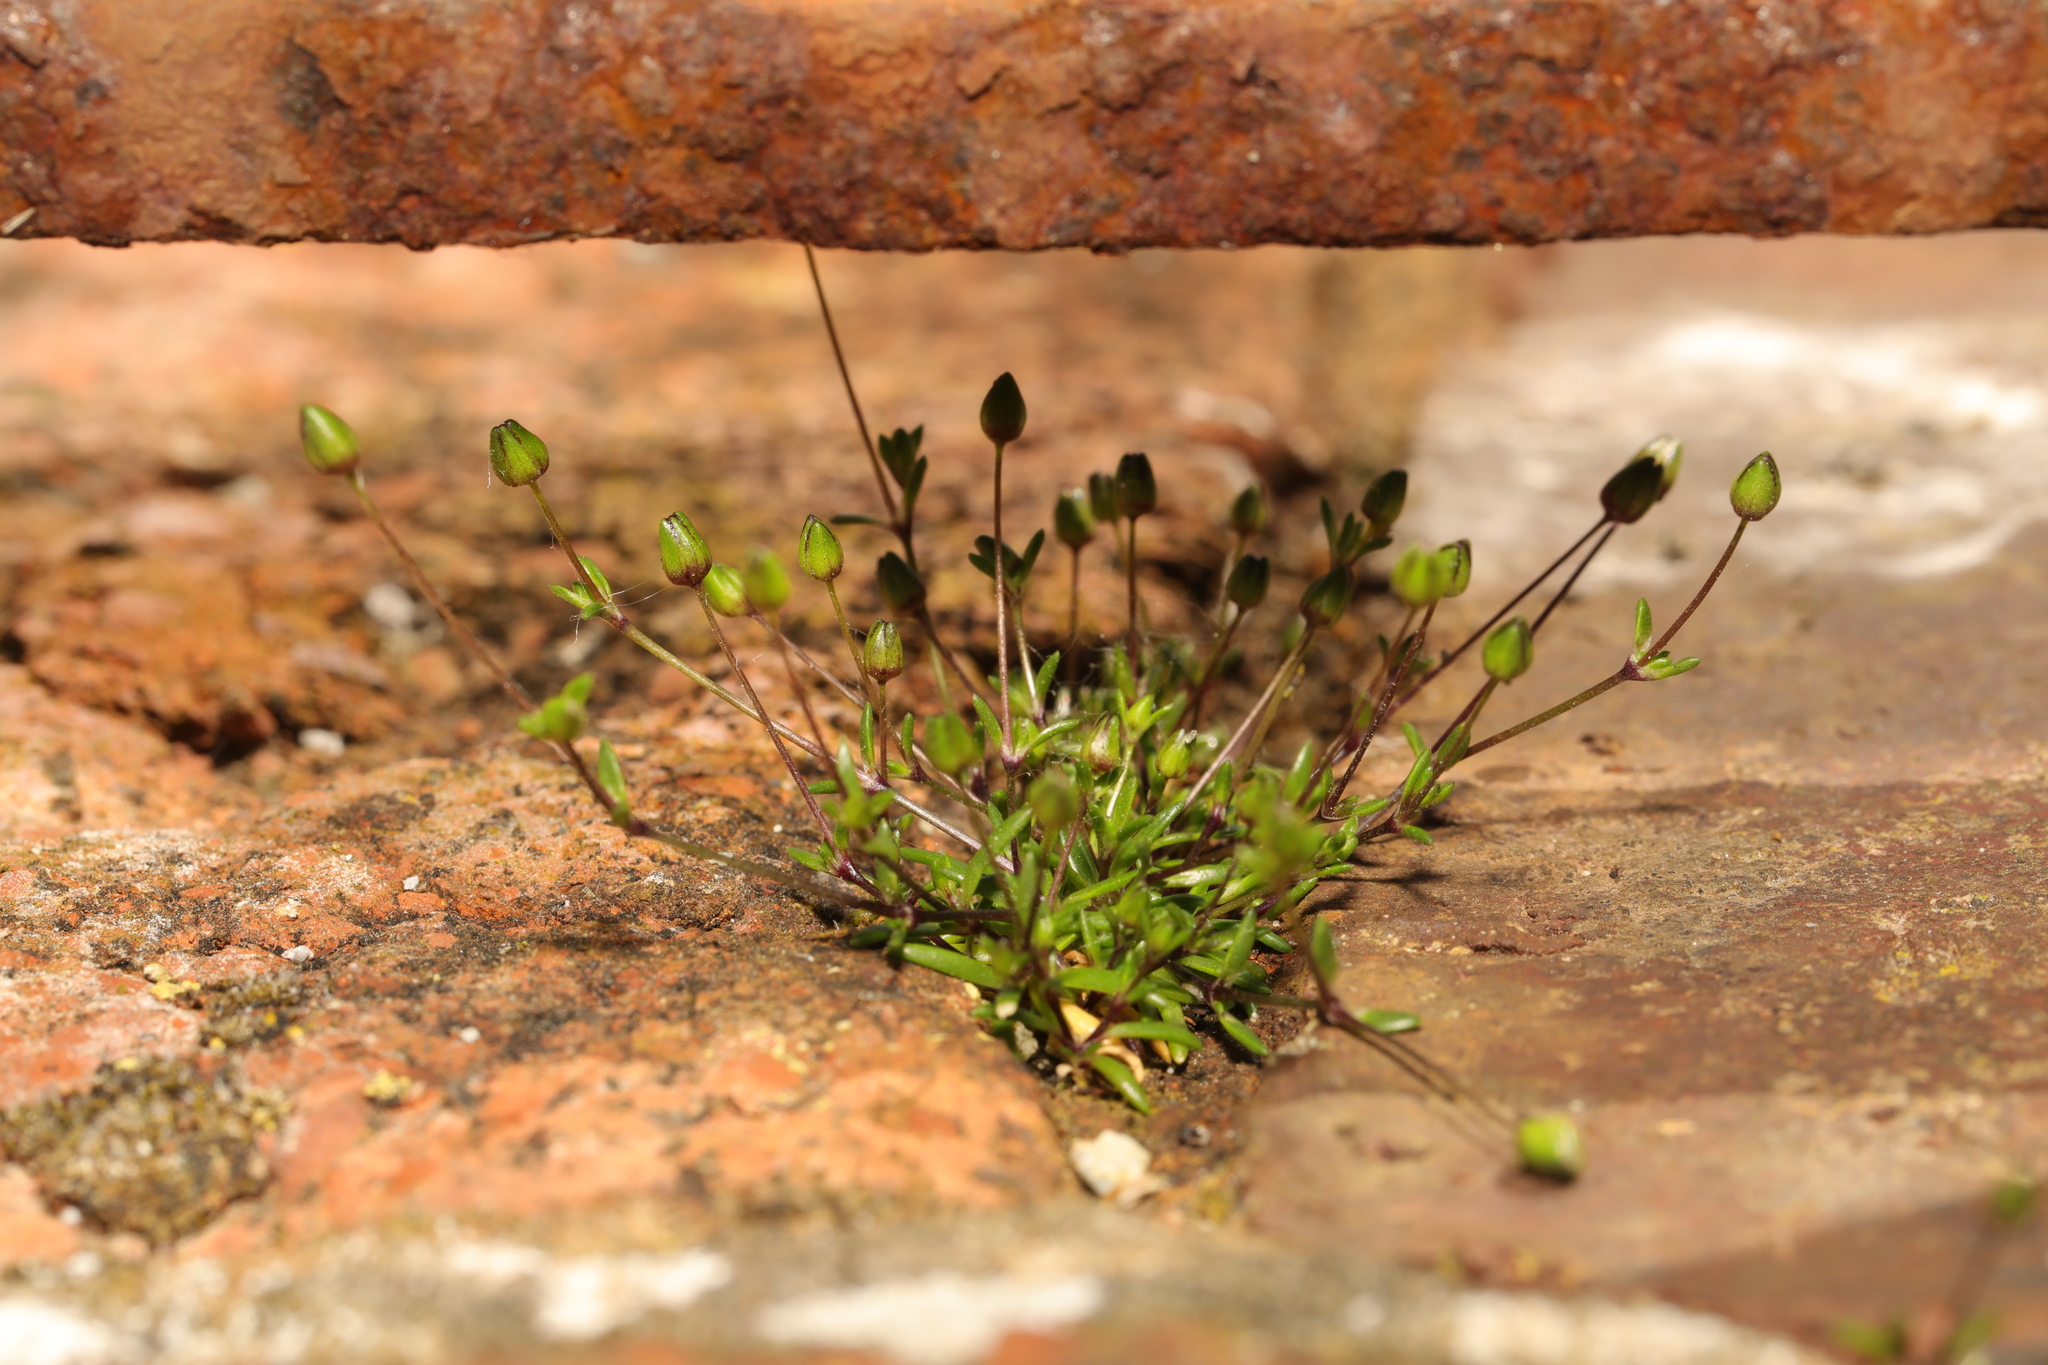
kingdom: Plantae
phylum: Tracheophyta
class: Magnoliopsida
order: Caryophyllales
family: Caryophyllaceae
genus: Sagina
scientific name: Sagina procumbens
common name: Procumbent pearlwort
